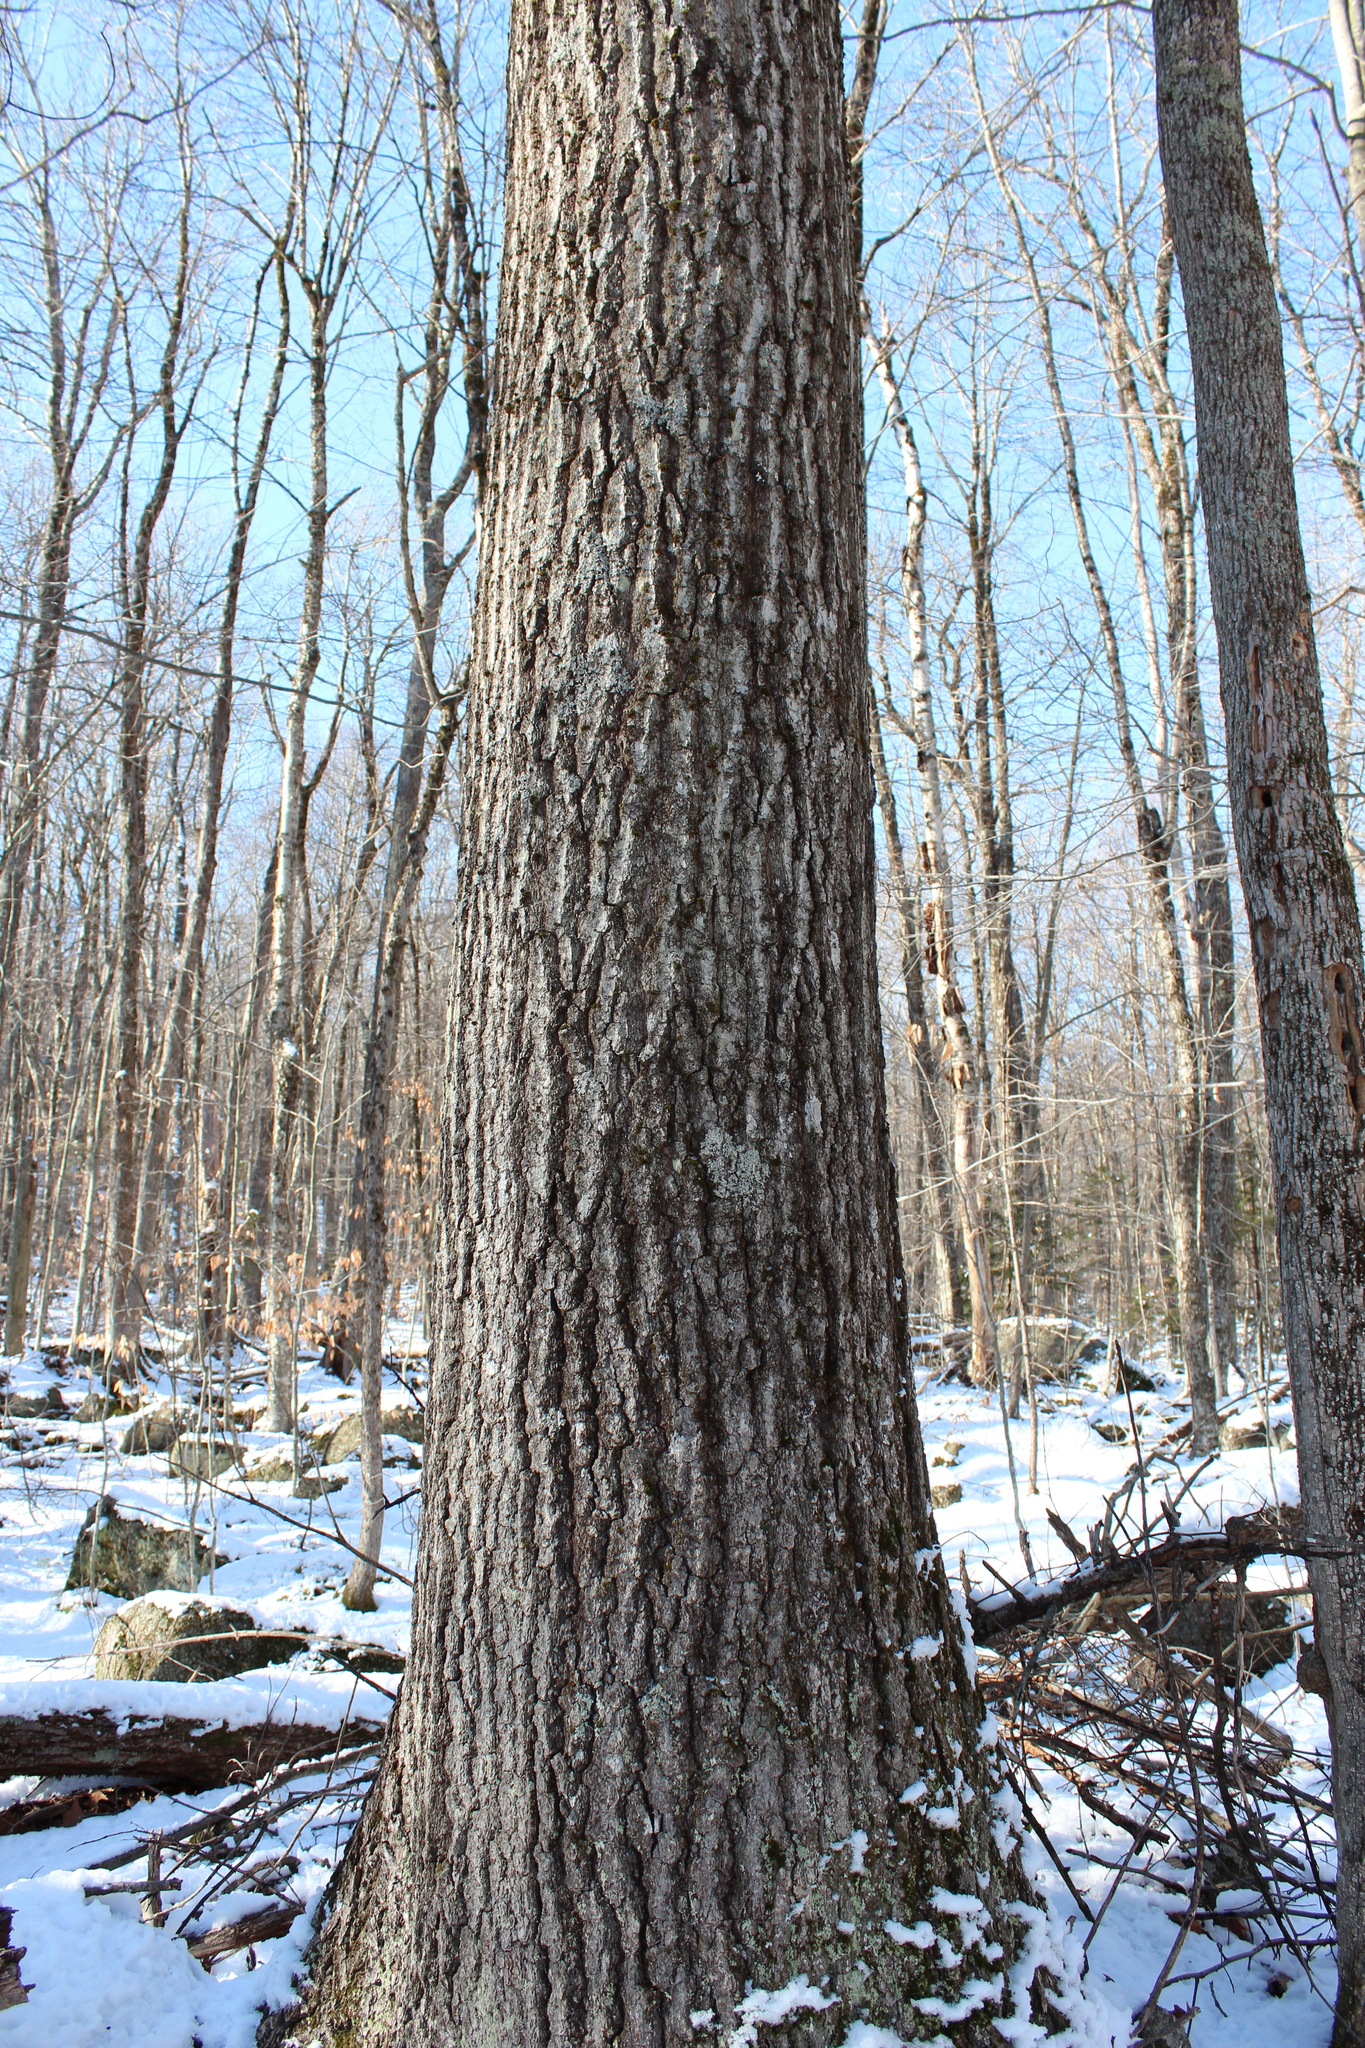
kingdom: Plantae
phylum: Tracheophyta
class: Magnoliopsida
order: Fagales
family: Fagaceae
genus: Quercus
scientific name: Quercus rubra
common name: Red oak
